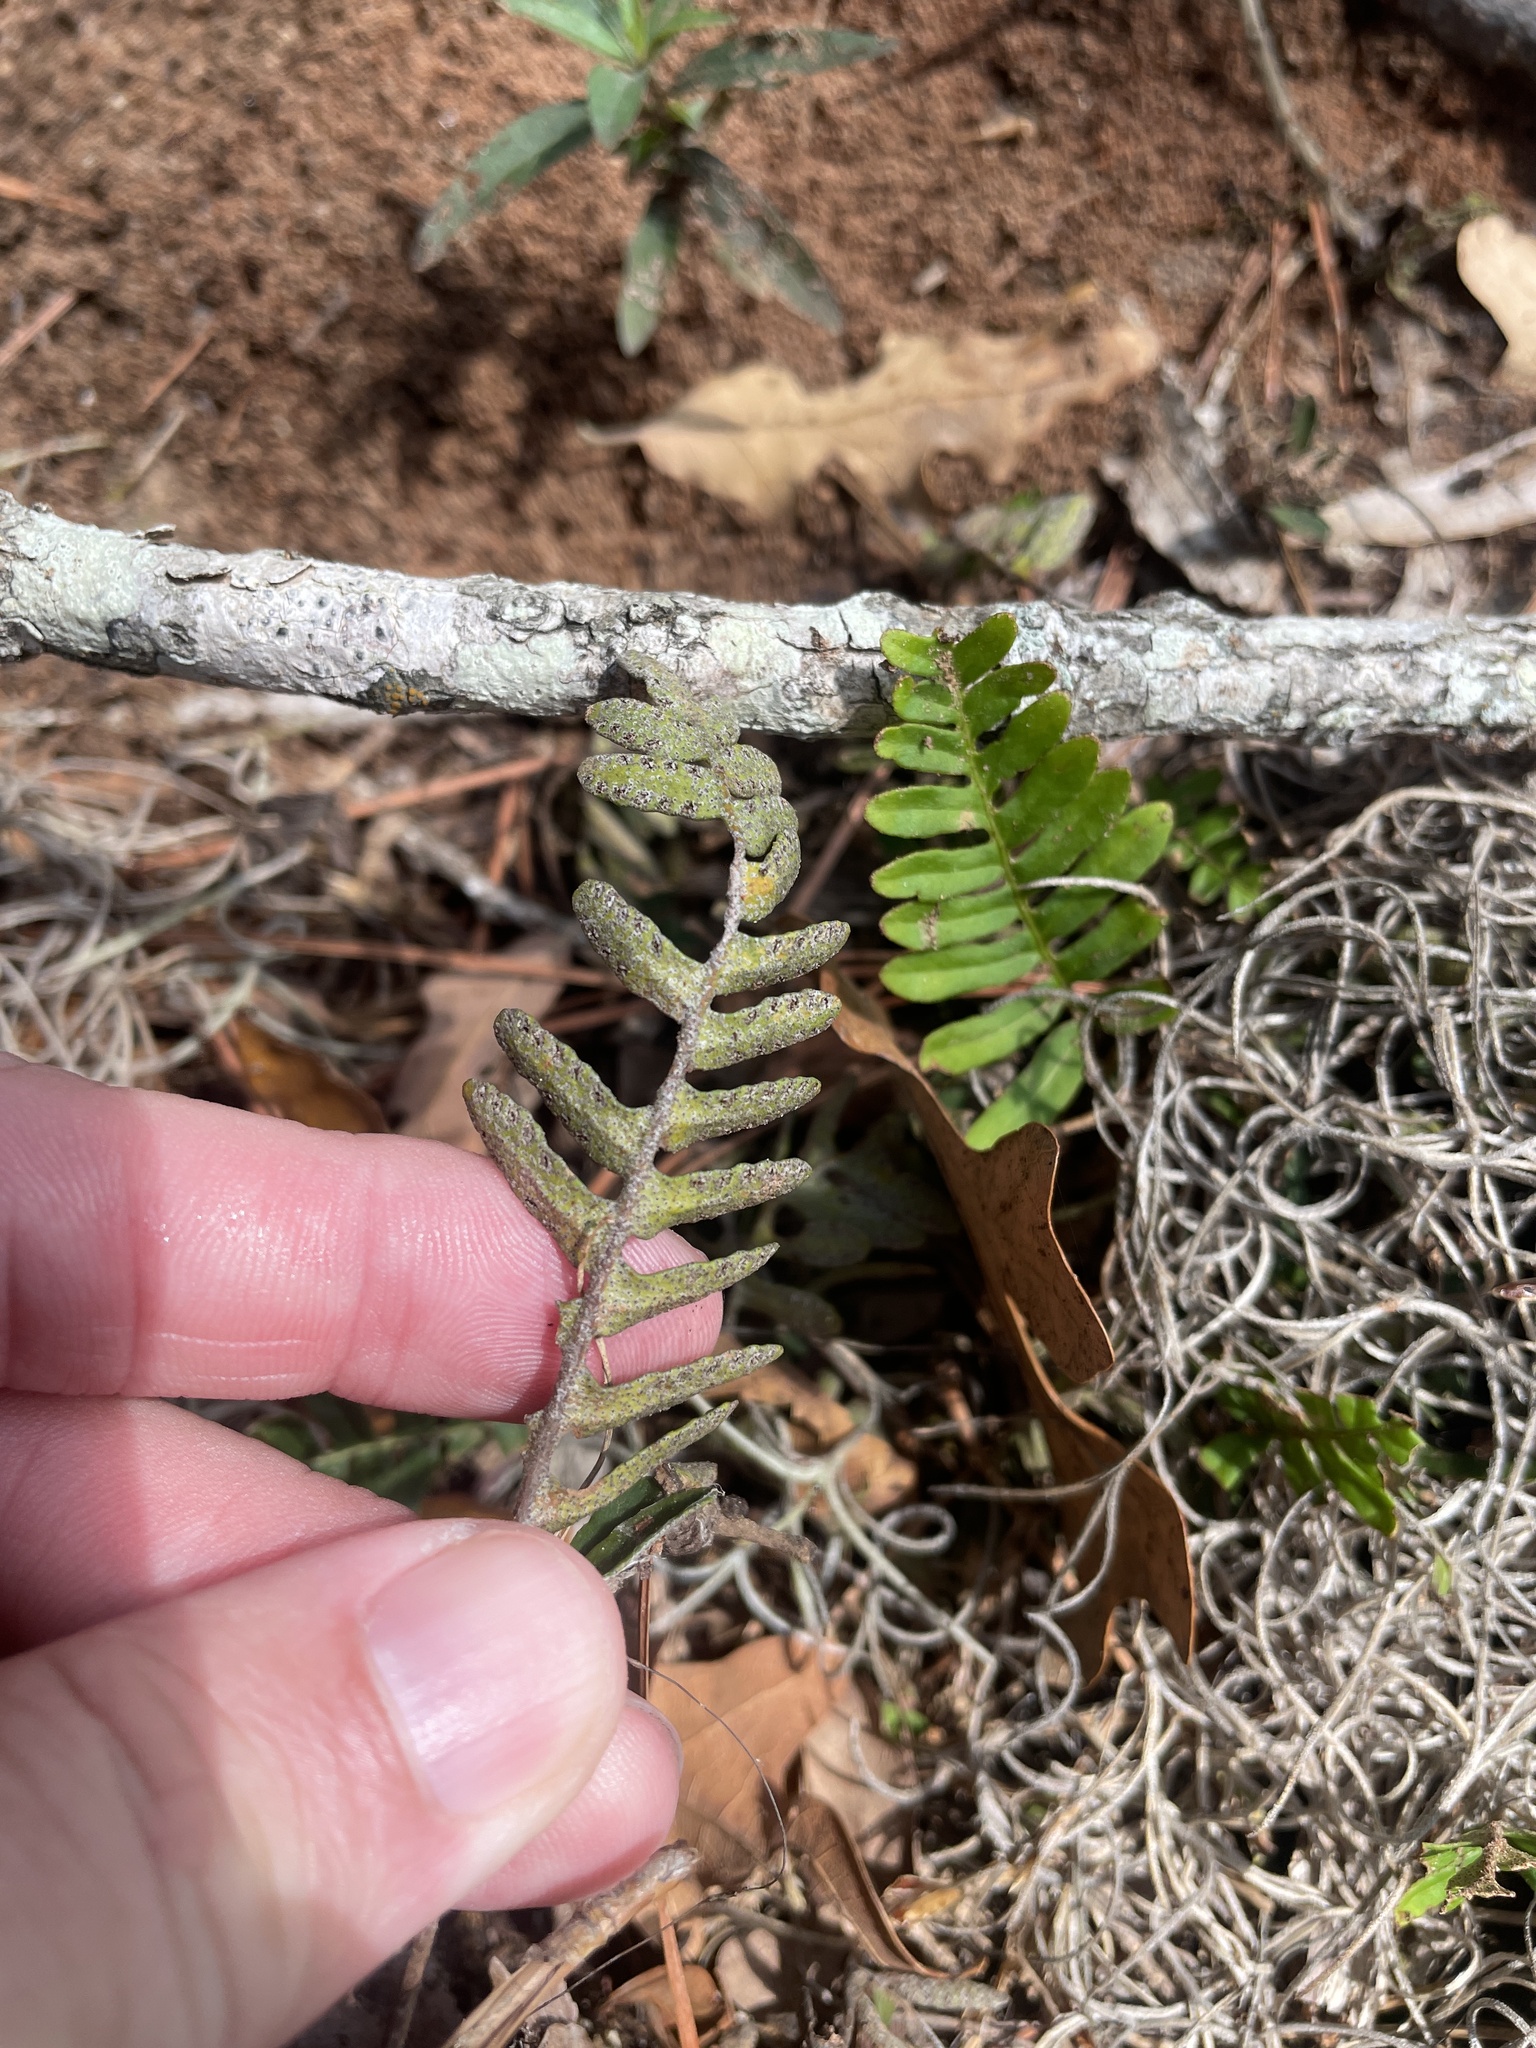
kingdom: Plantae
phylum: Tracheophyta
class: Polypodiopsida
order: Polypodiales
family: Polypodiaceae
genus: Pleopeltis
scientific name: Pleopeltis michauxiana
